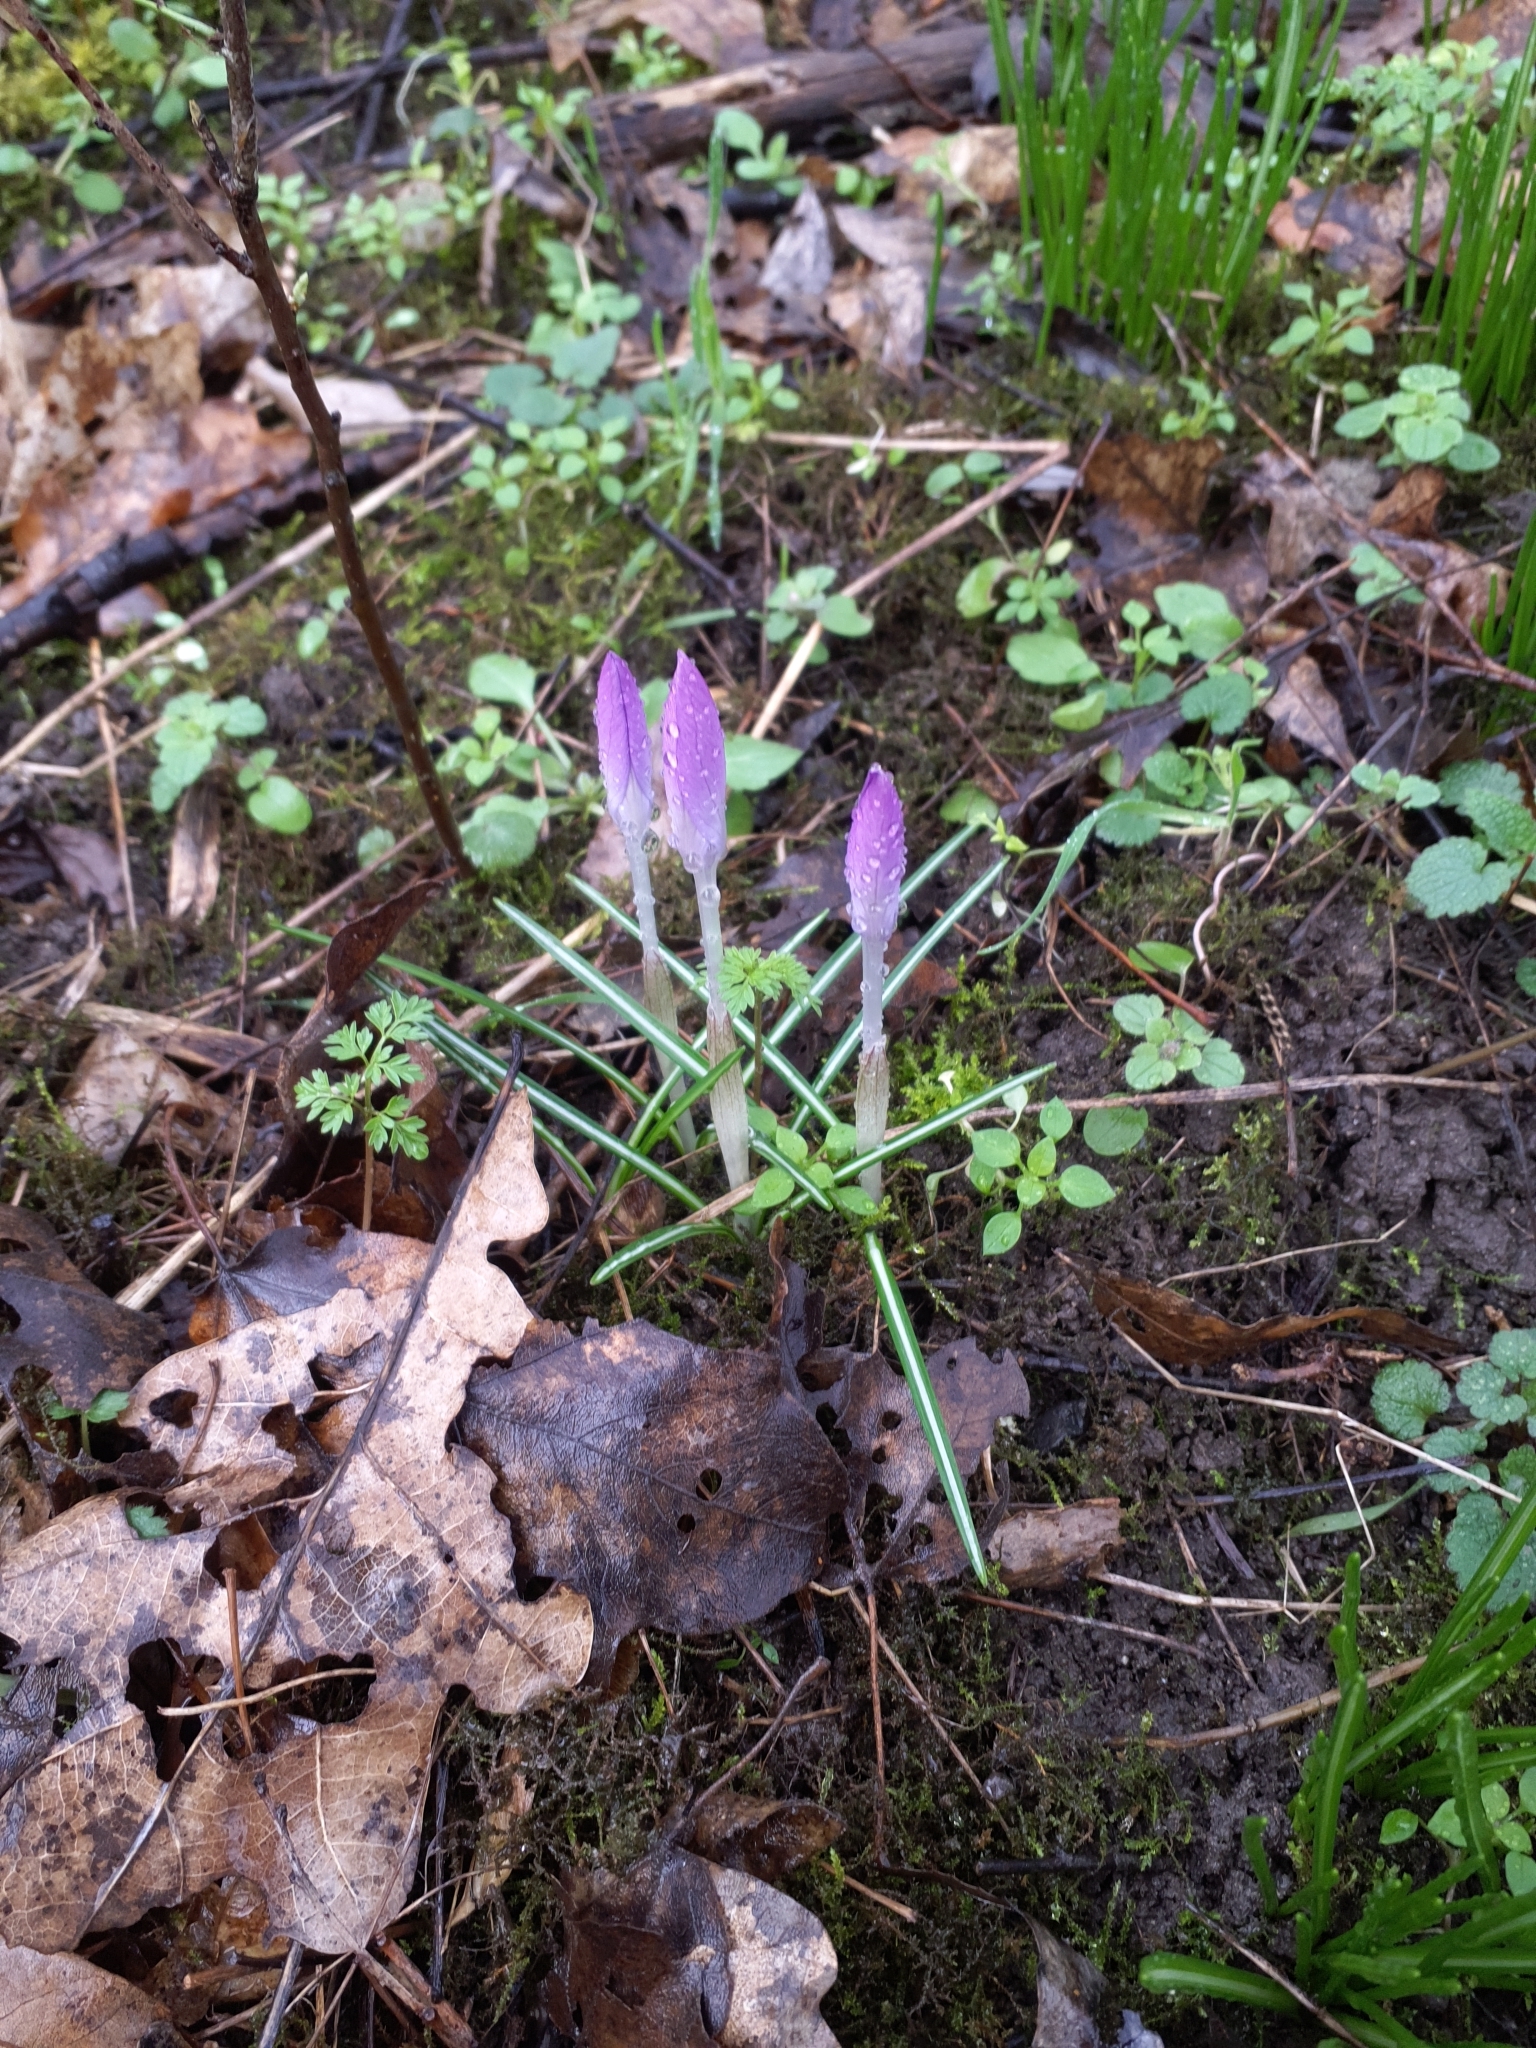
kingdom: Plantae
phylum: Tracheophyta
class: Liliopsida
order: Asparagales
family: Iridaceae
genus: Crocus
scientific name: Crocus tommasinianus
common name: Early crocus
